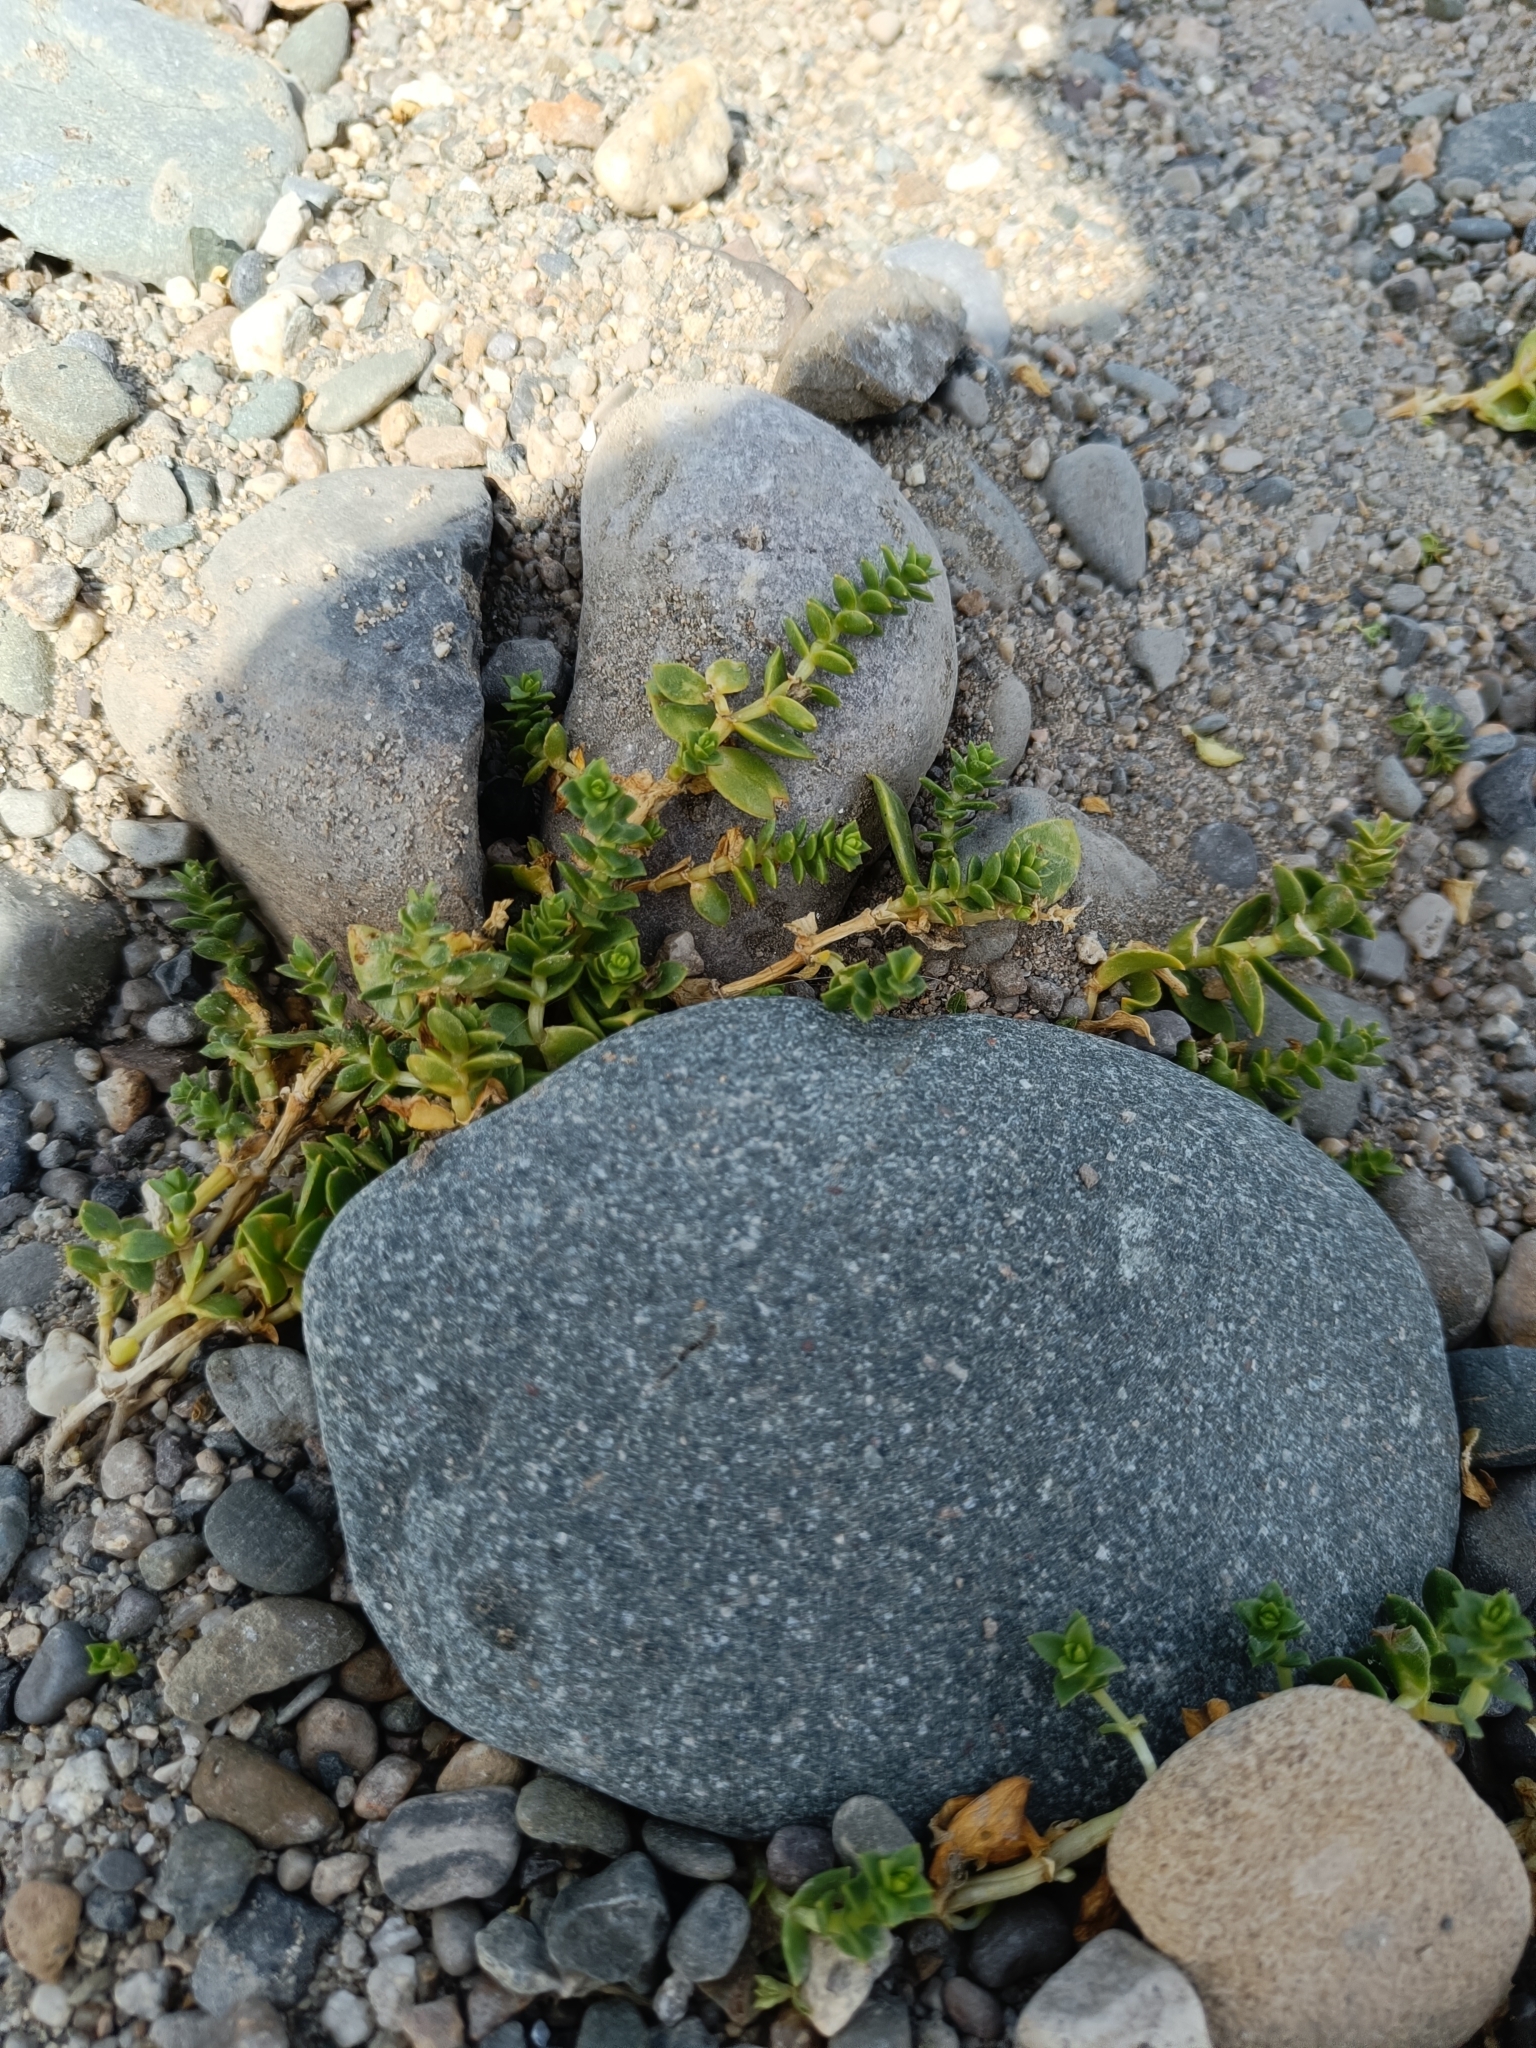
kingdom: Plantae
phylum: Tracheophyta
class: Magnoliopsida
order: Caryophyllales
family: Caryophyllaceae
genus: Honckenya
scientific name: Honckenya peploides
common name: Sea sandwort
